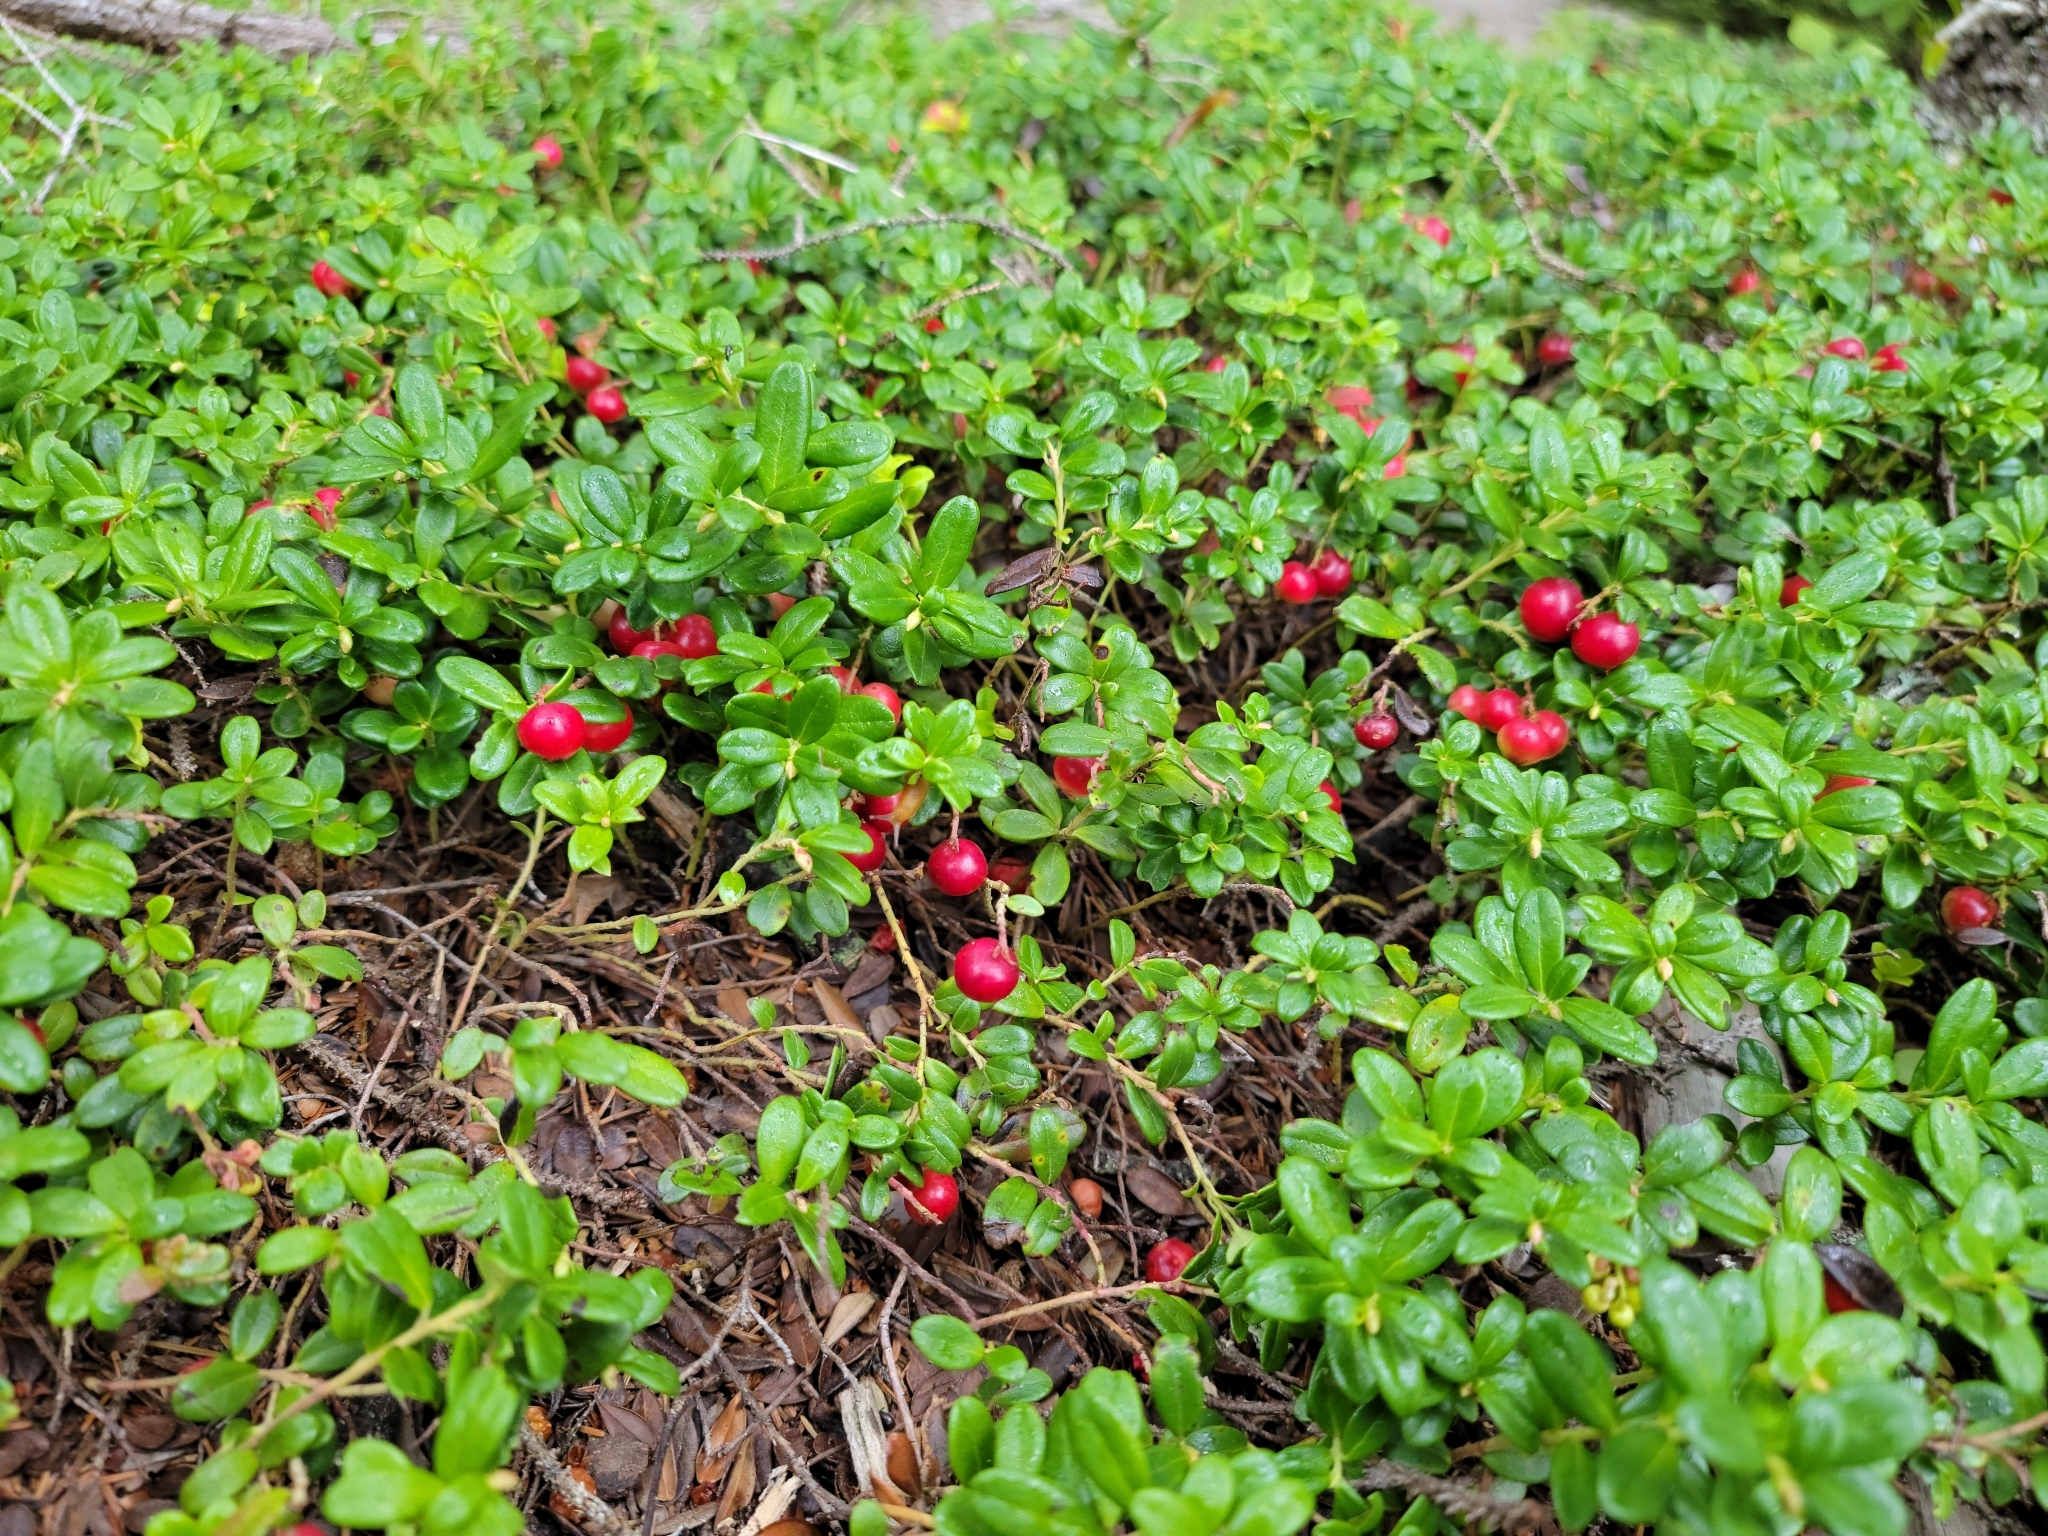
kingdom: Plantae
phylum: Tracheophyta
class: Magnoliopsida
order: Ericales
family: Ericaceae
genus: Vaccinium
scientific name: Vaccinium vitis-idaea
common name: Cowberry
